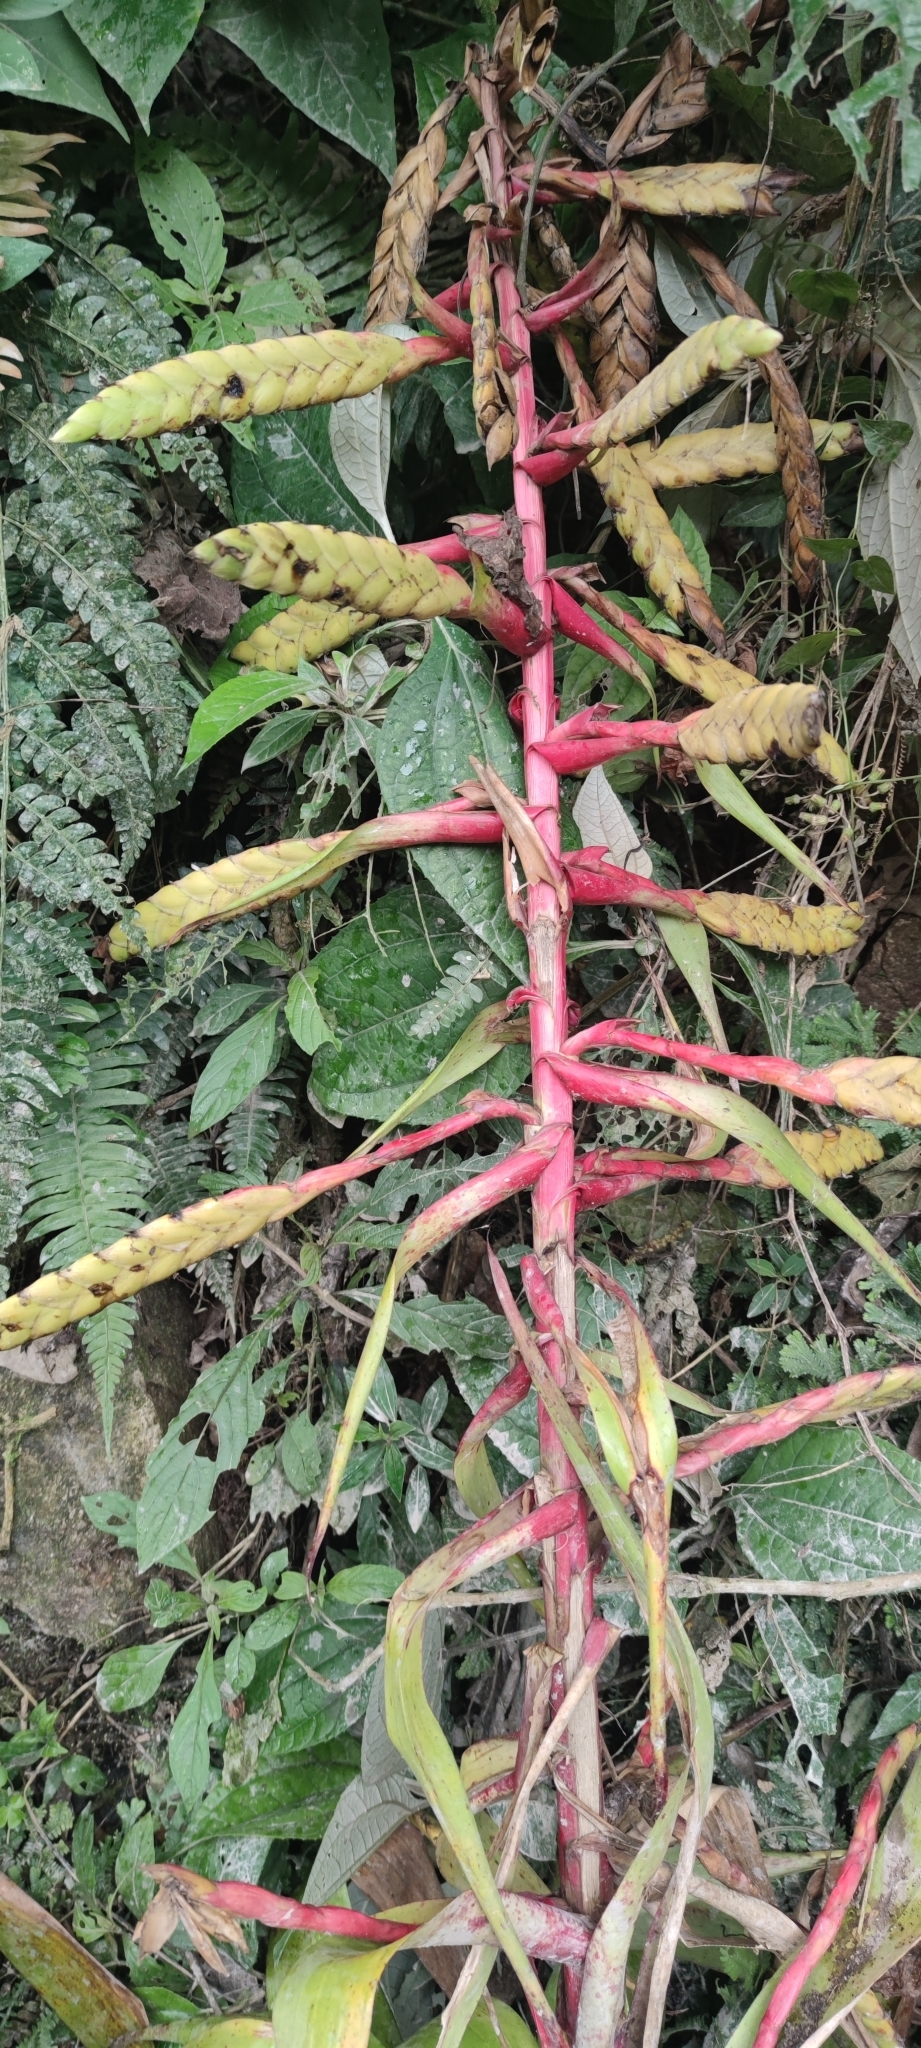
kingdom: Plantae
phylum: Tracheophyta
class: Liliopsida
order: Poales
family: Bromeliaceae
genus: Tillandsia
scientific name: Tillandsia fendleri
